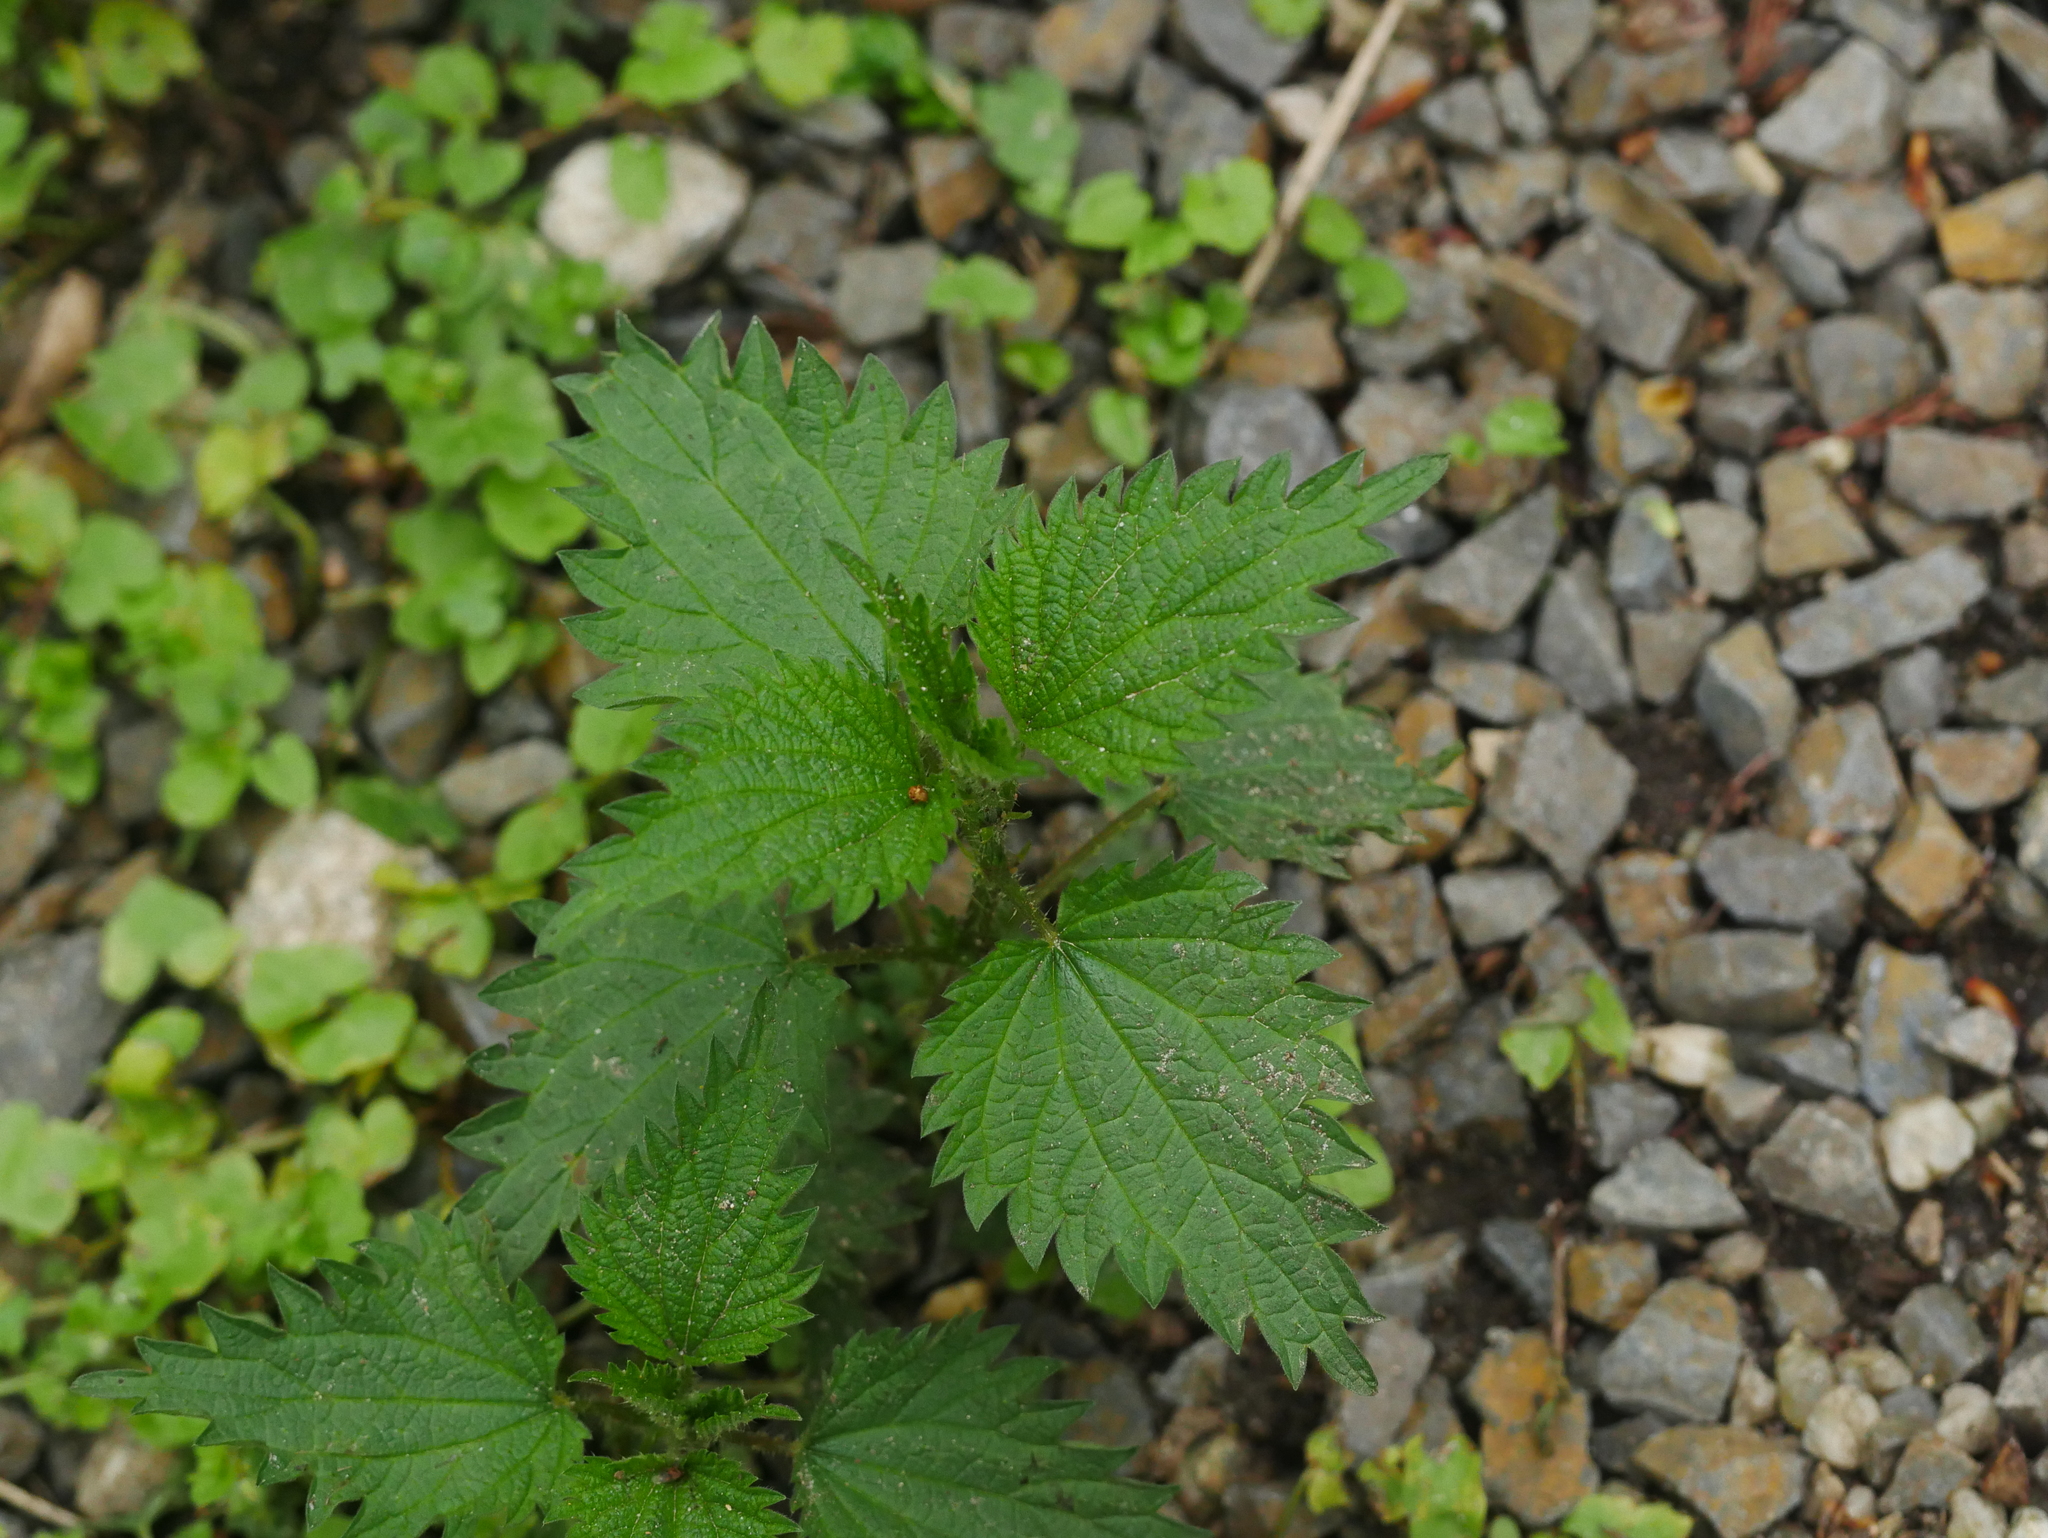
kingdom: Plantae
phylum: Tracheophyta
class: Magnoliopsida
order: Rosales
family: Urticaceae
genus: Urtica
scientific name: Urtica dioica
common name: Common nettle
